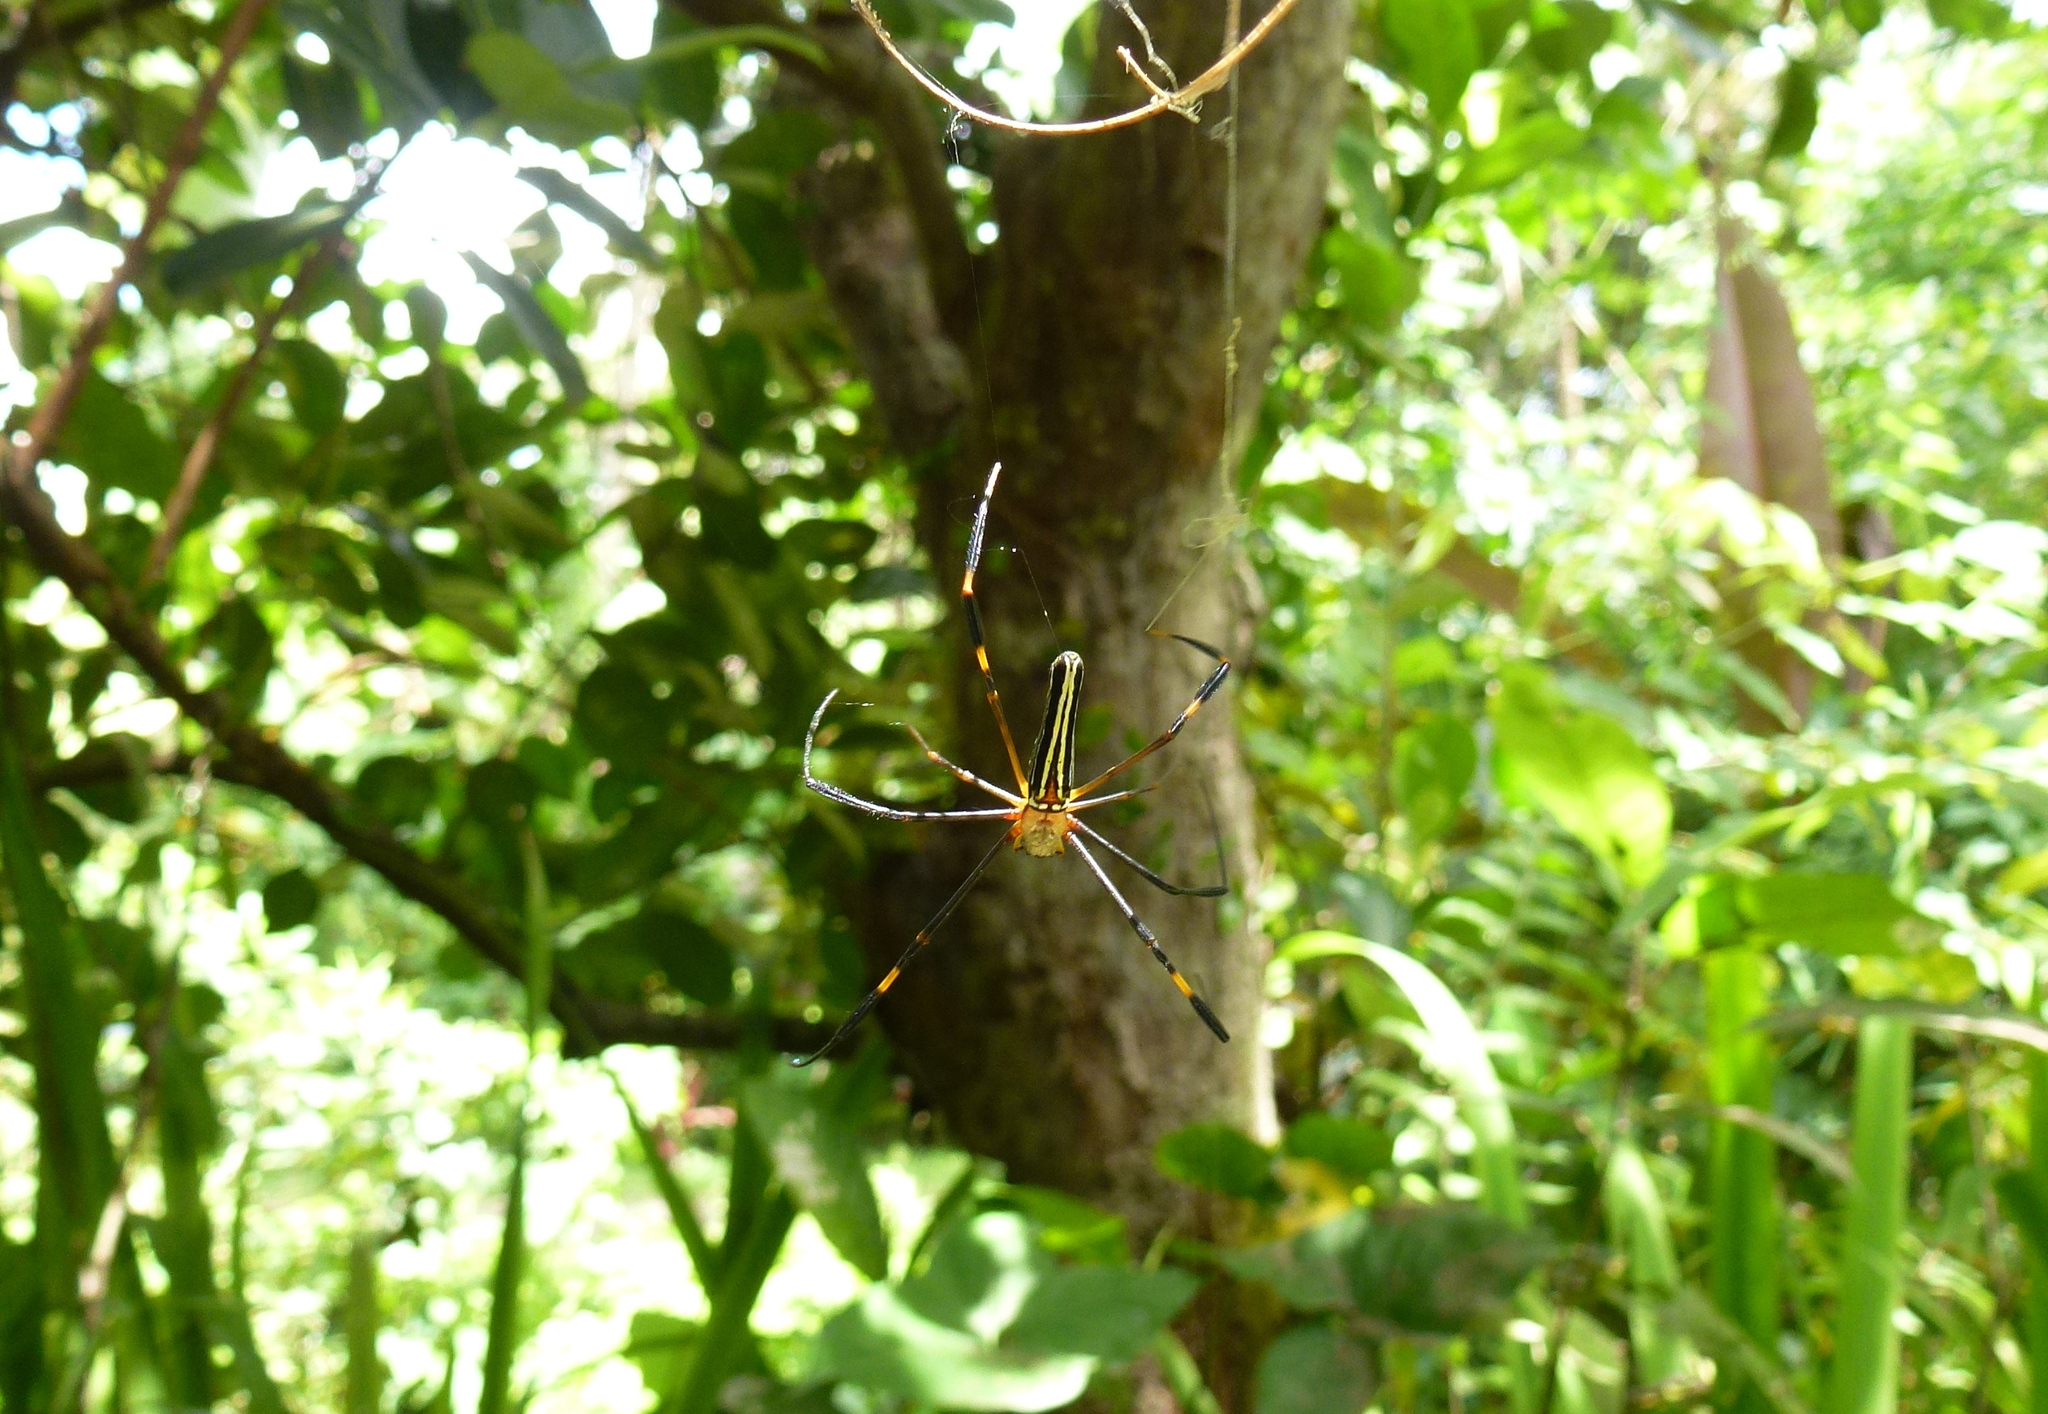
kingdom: Animalia
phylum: Arthropoda
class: Arachnida
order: Araneae
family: Araneidae
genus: Nephila
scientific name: Nephila pilipes
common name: Giant golden orb weaver
